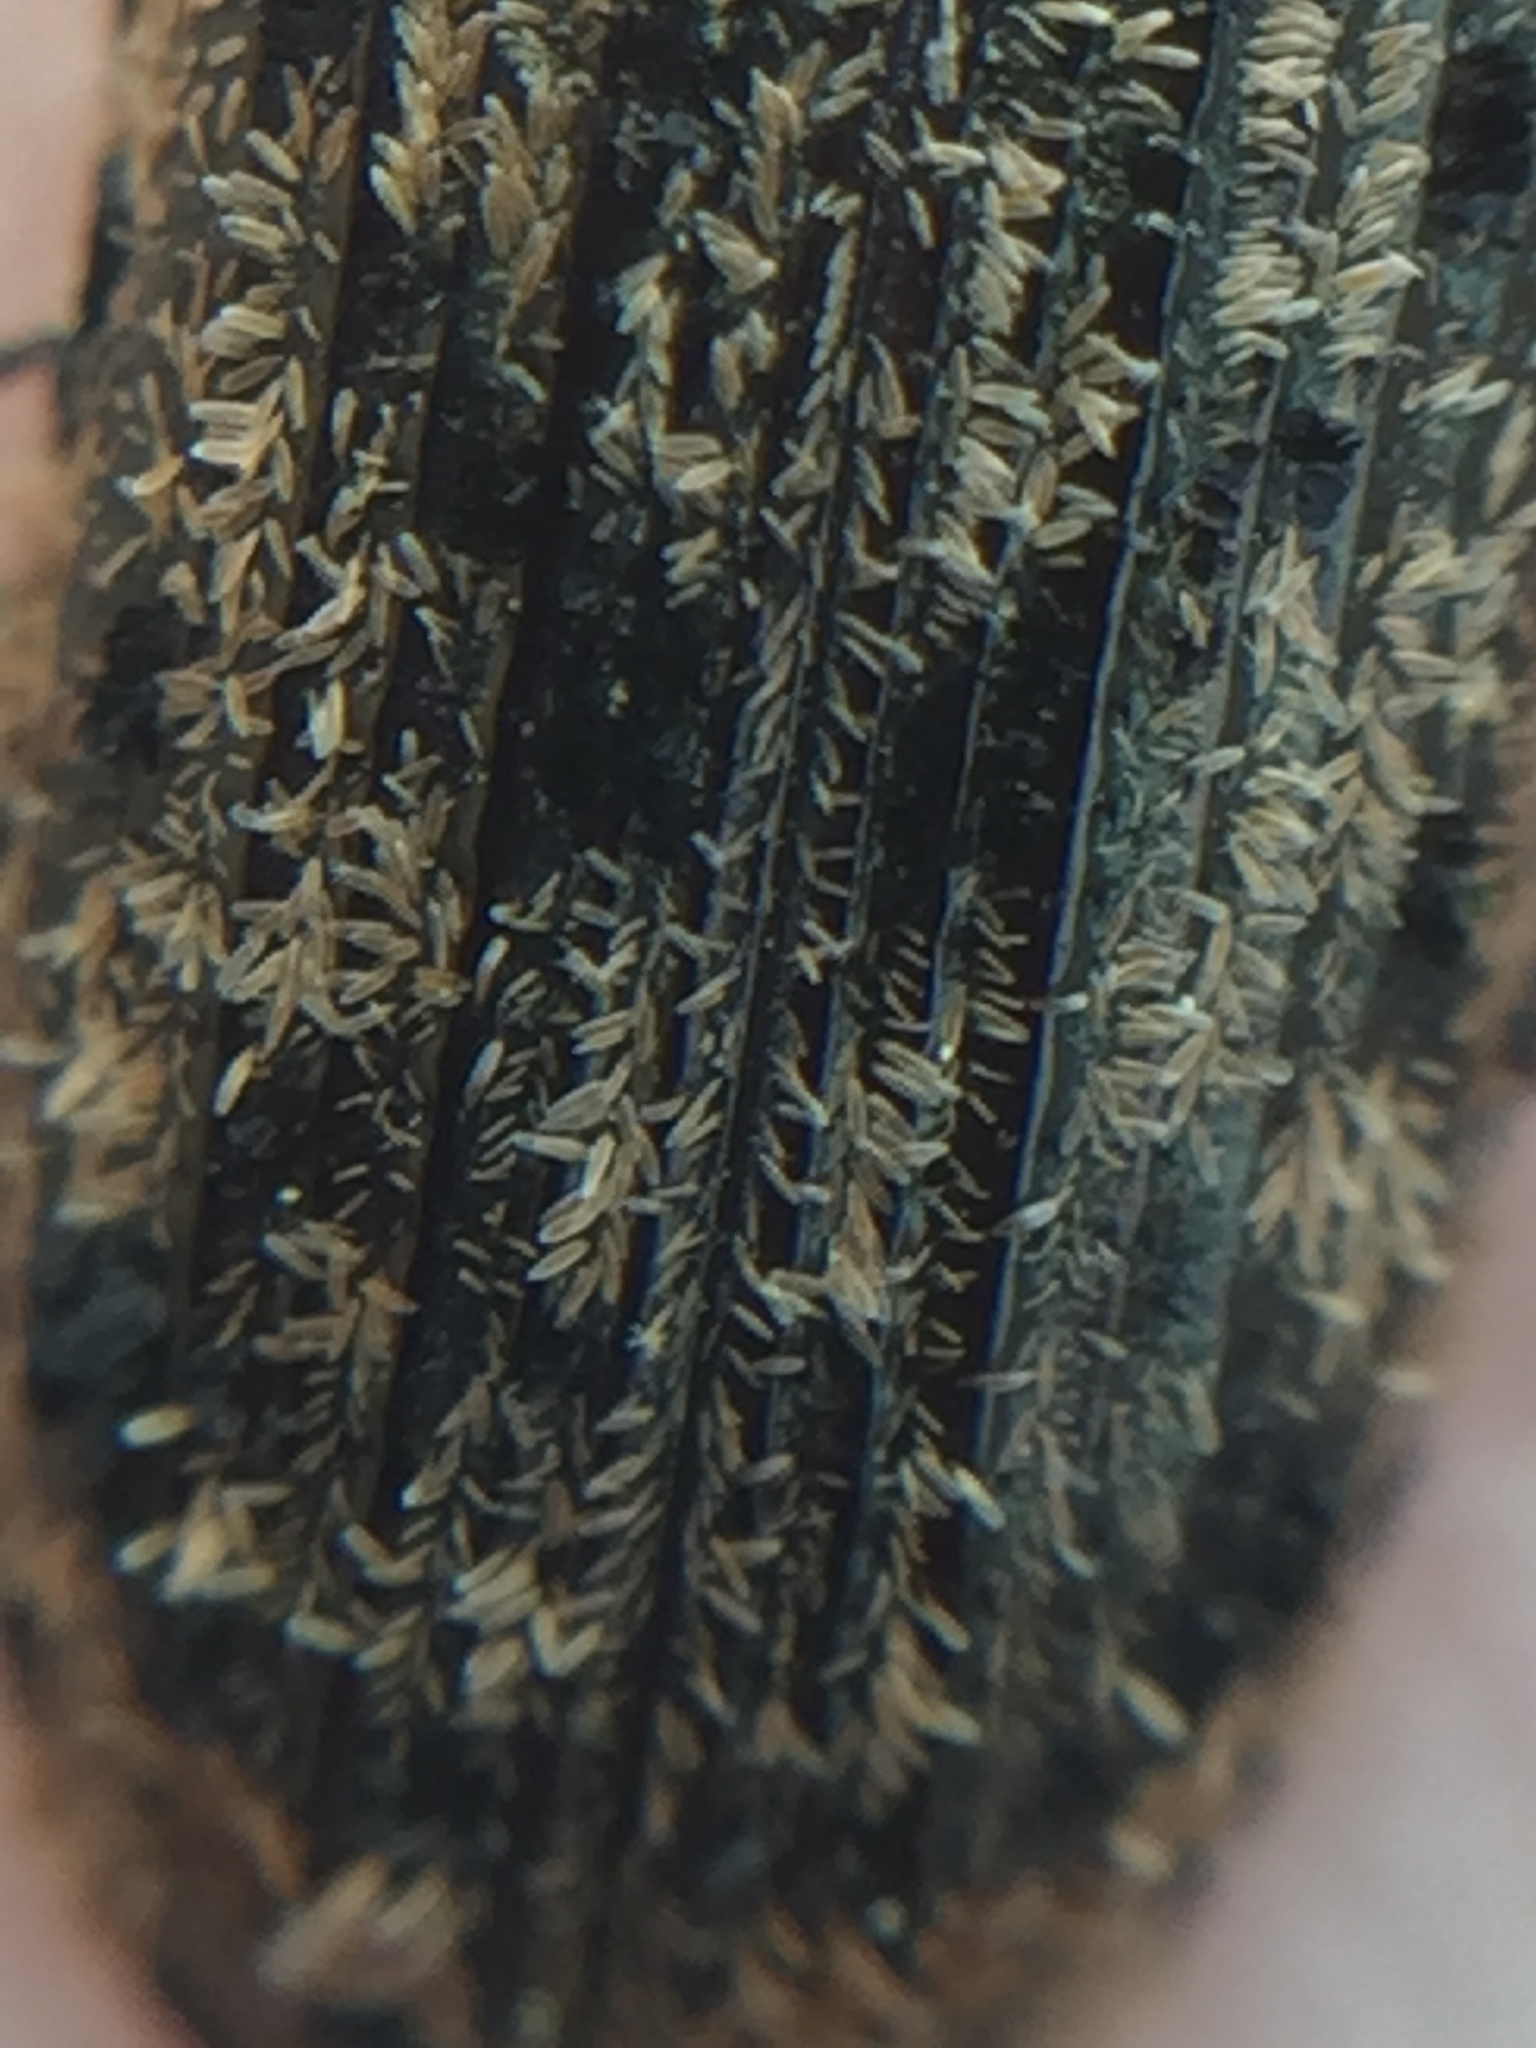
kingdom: Animalia
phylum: Arthropoda
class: Insecta
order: Coleoptera
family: Trogossitidae
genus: Phanodesta
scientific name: Phanodesta
